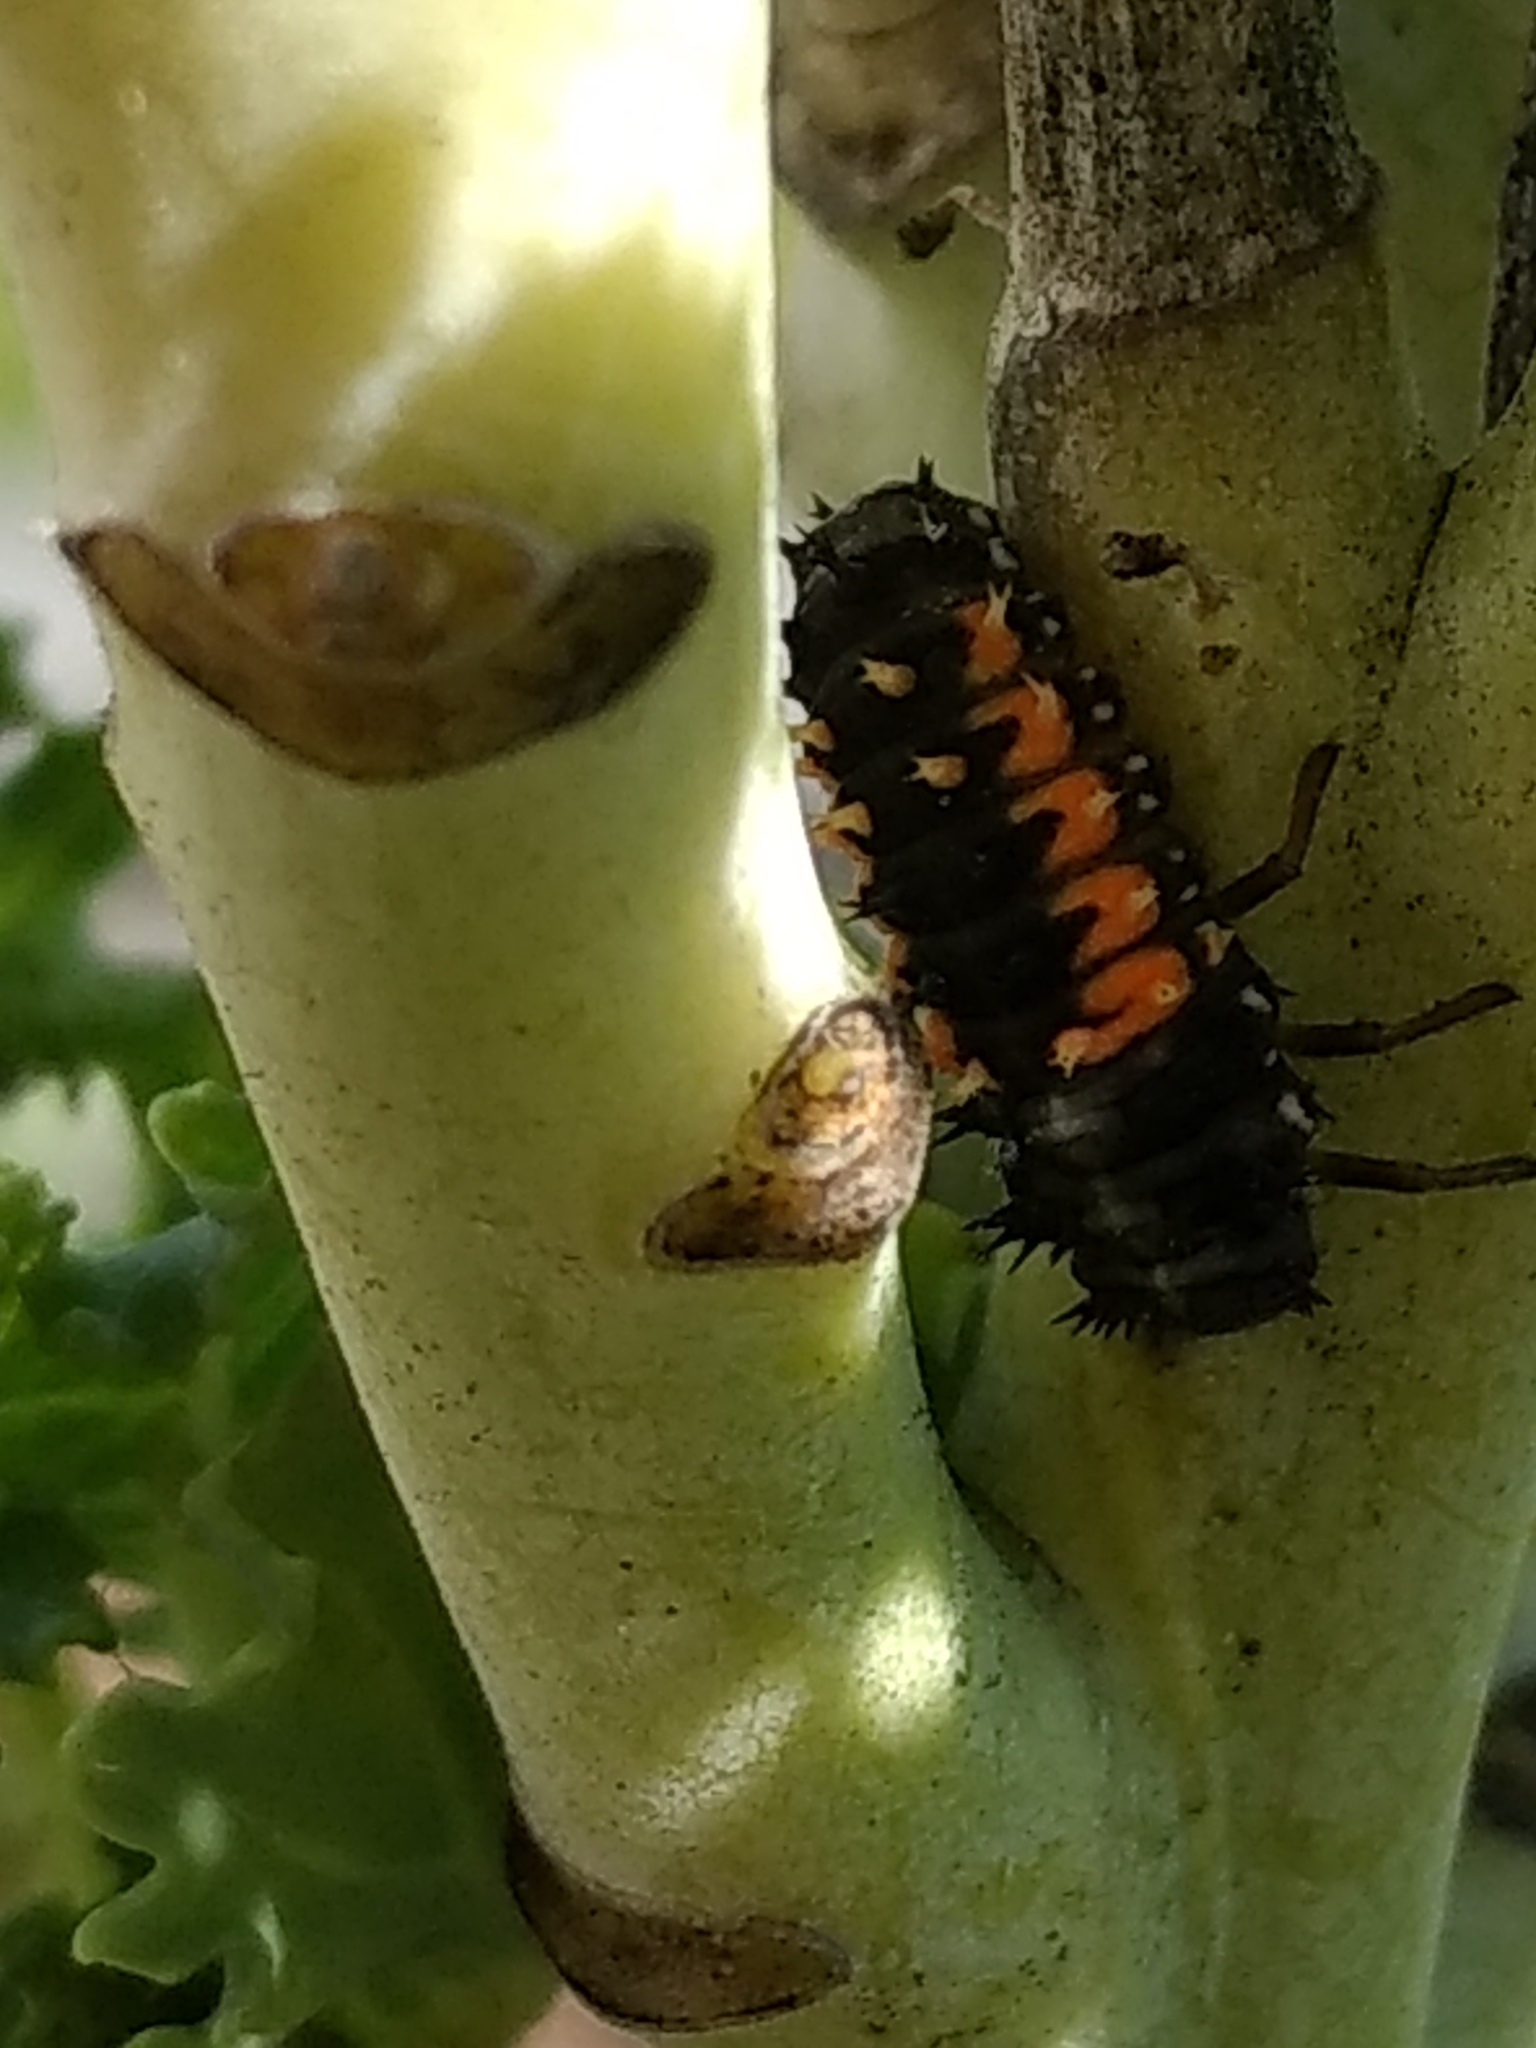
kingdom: Animalia
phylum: Arthropoda
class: Insecta
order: Coleoptera
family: Coccinellidae
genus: Harmonia
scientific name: Harmonia axyridis
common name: Harlequin ladybird
